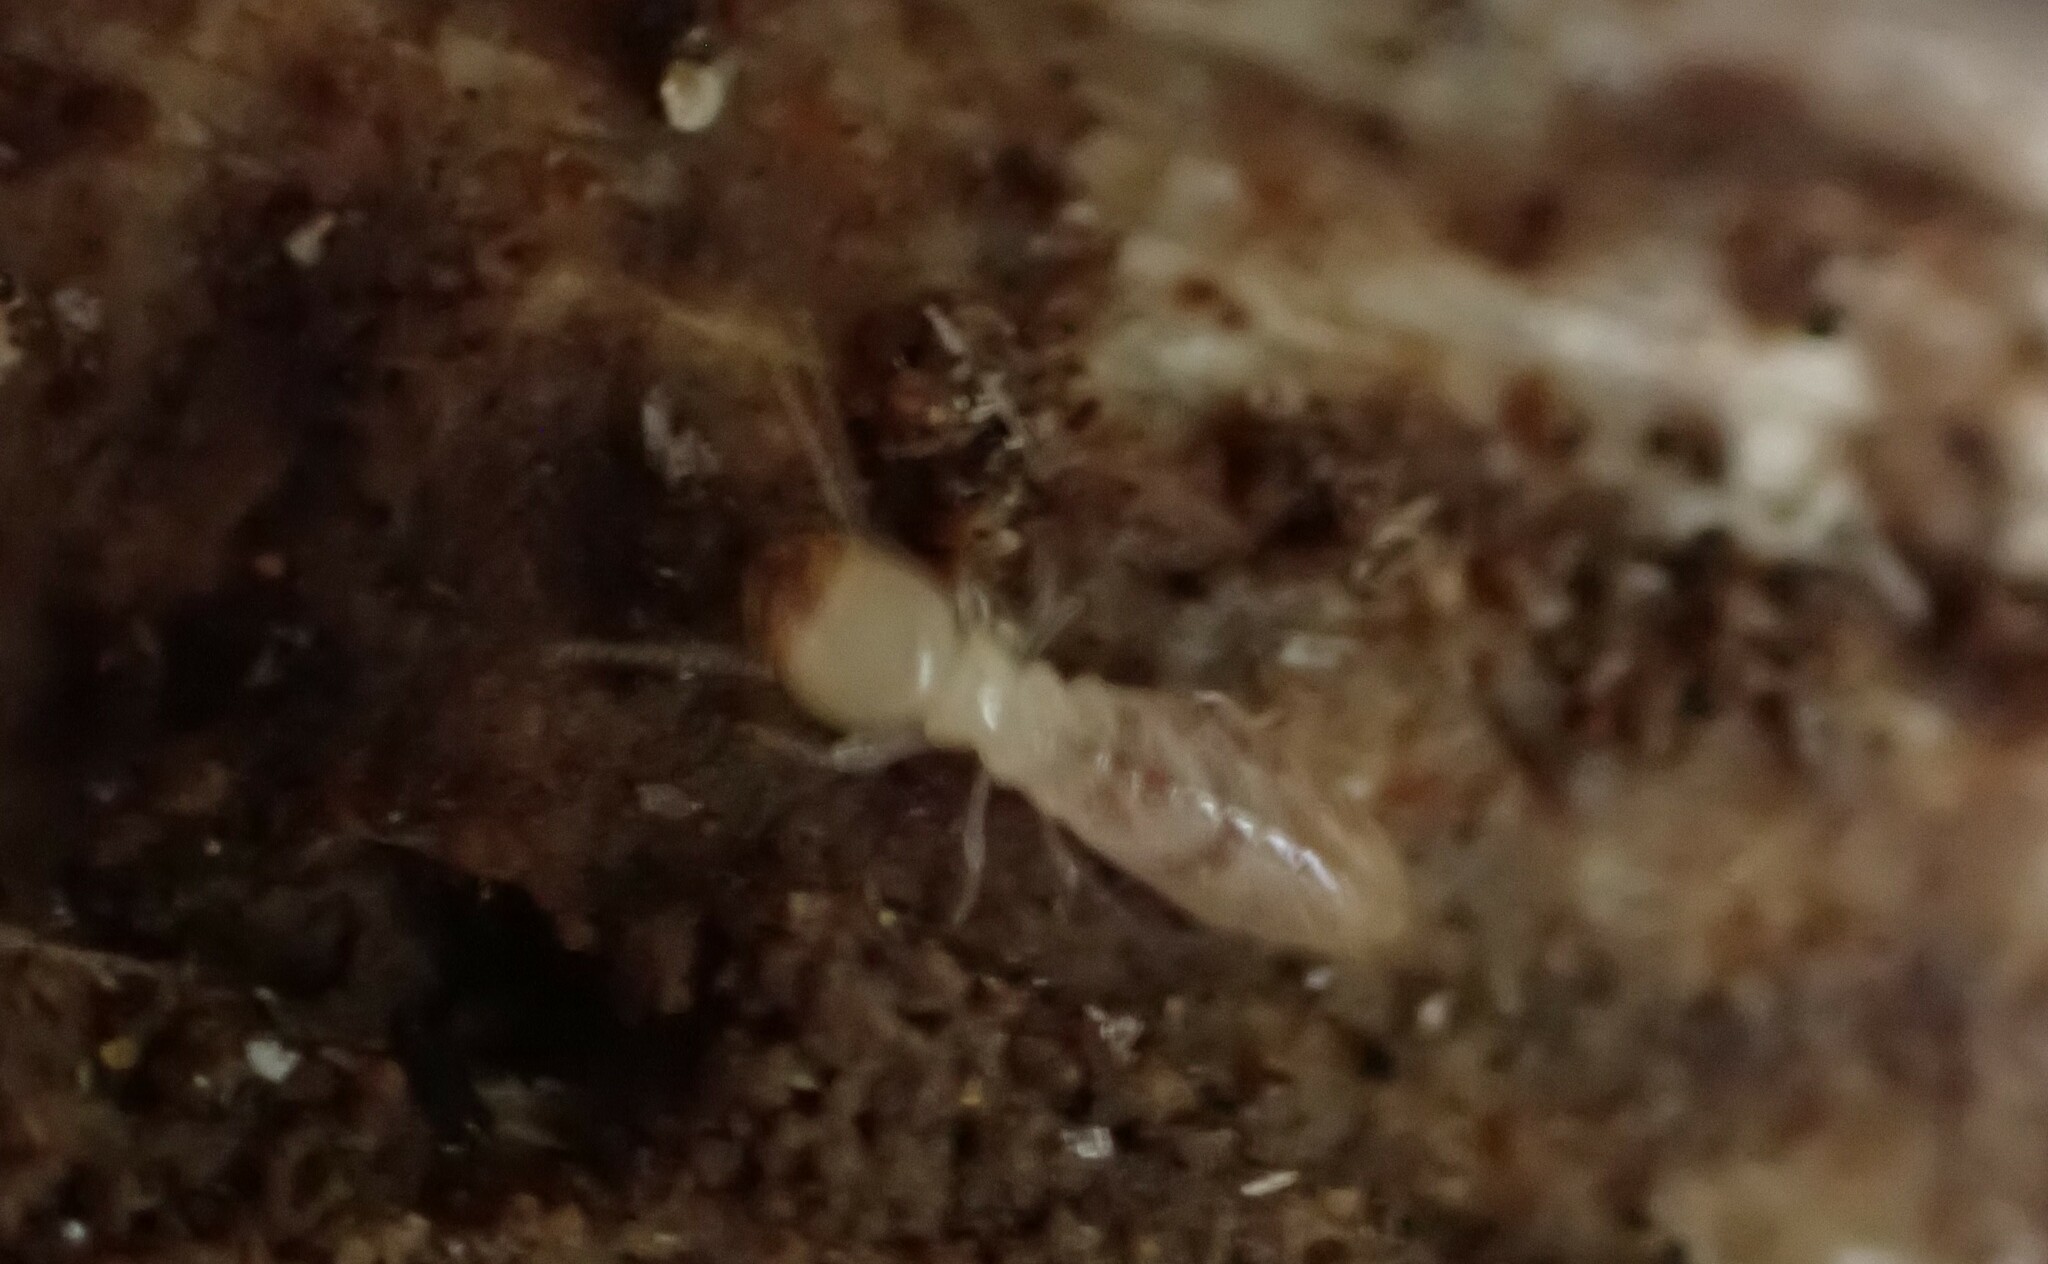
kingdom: Animalia
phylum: Arthropoda
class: Insecta
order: Blattodea
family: Rhinotermitidae
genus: Reticulitermes
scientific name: Reticulitermes flavipes
